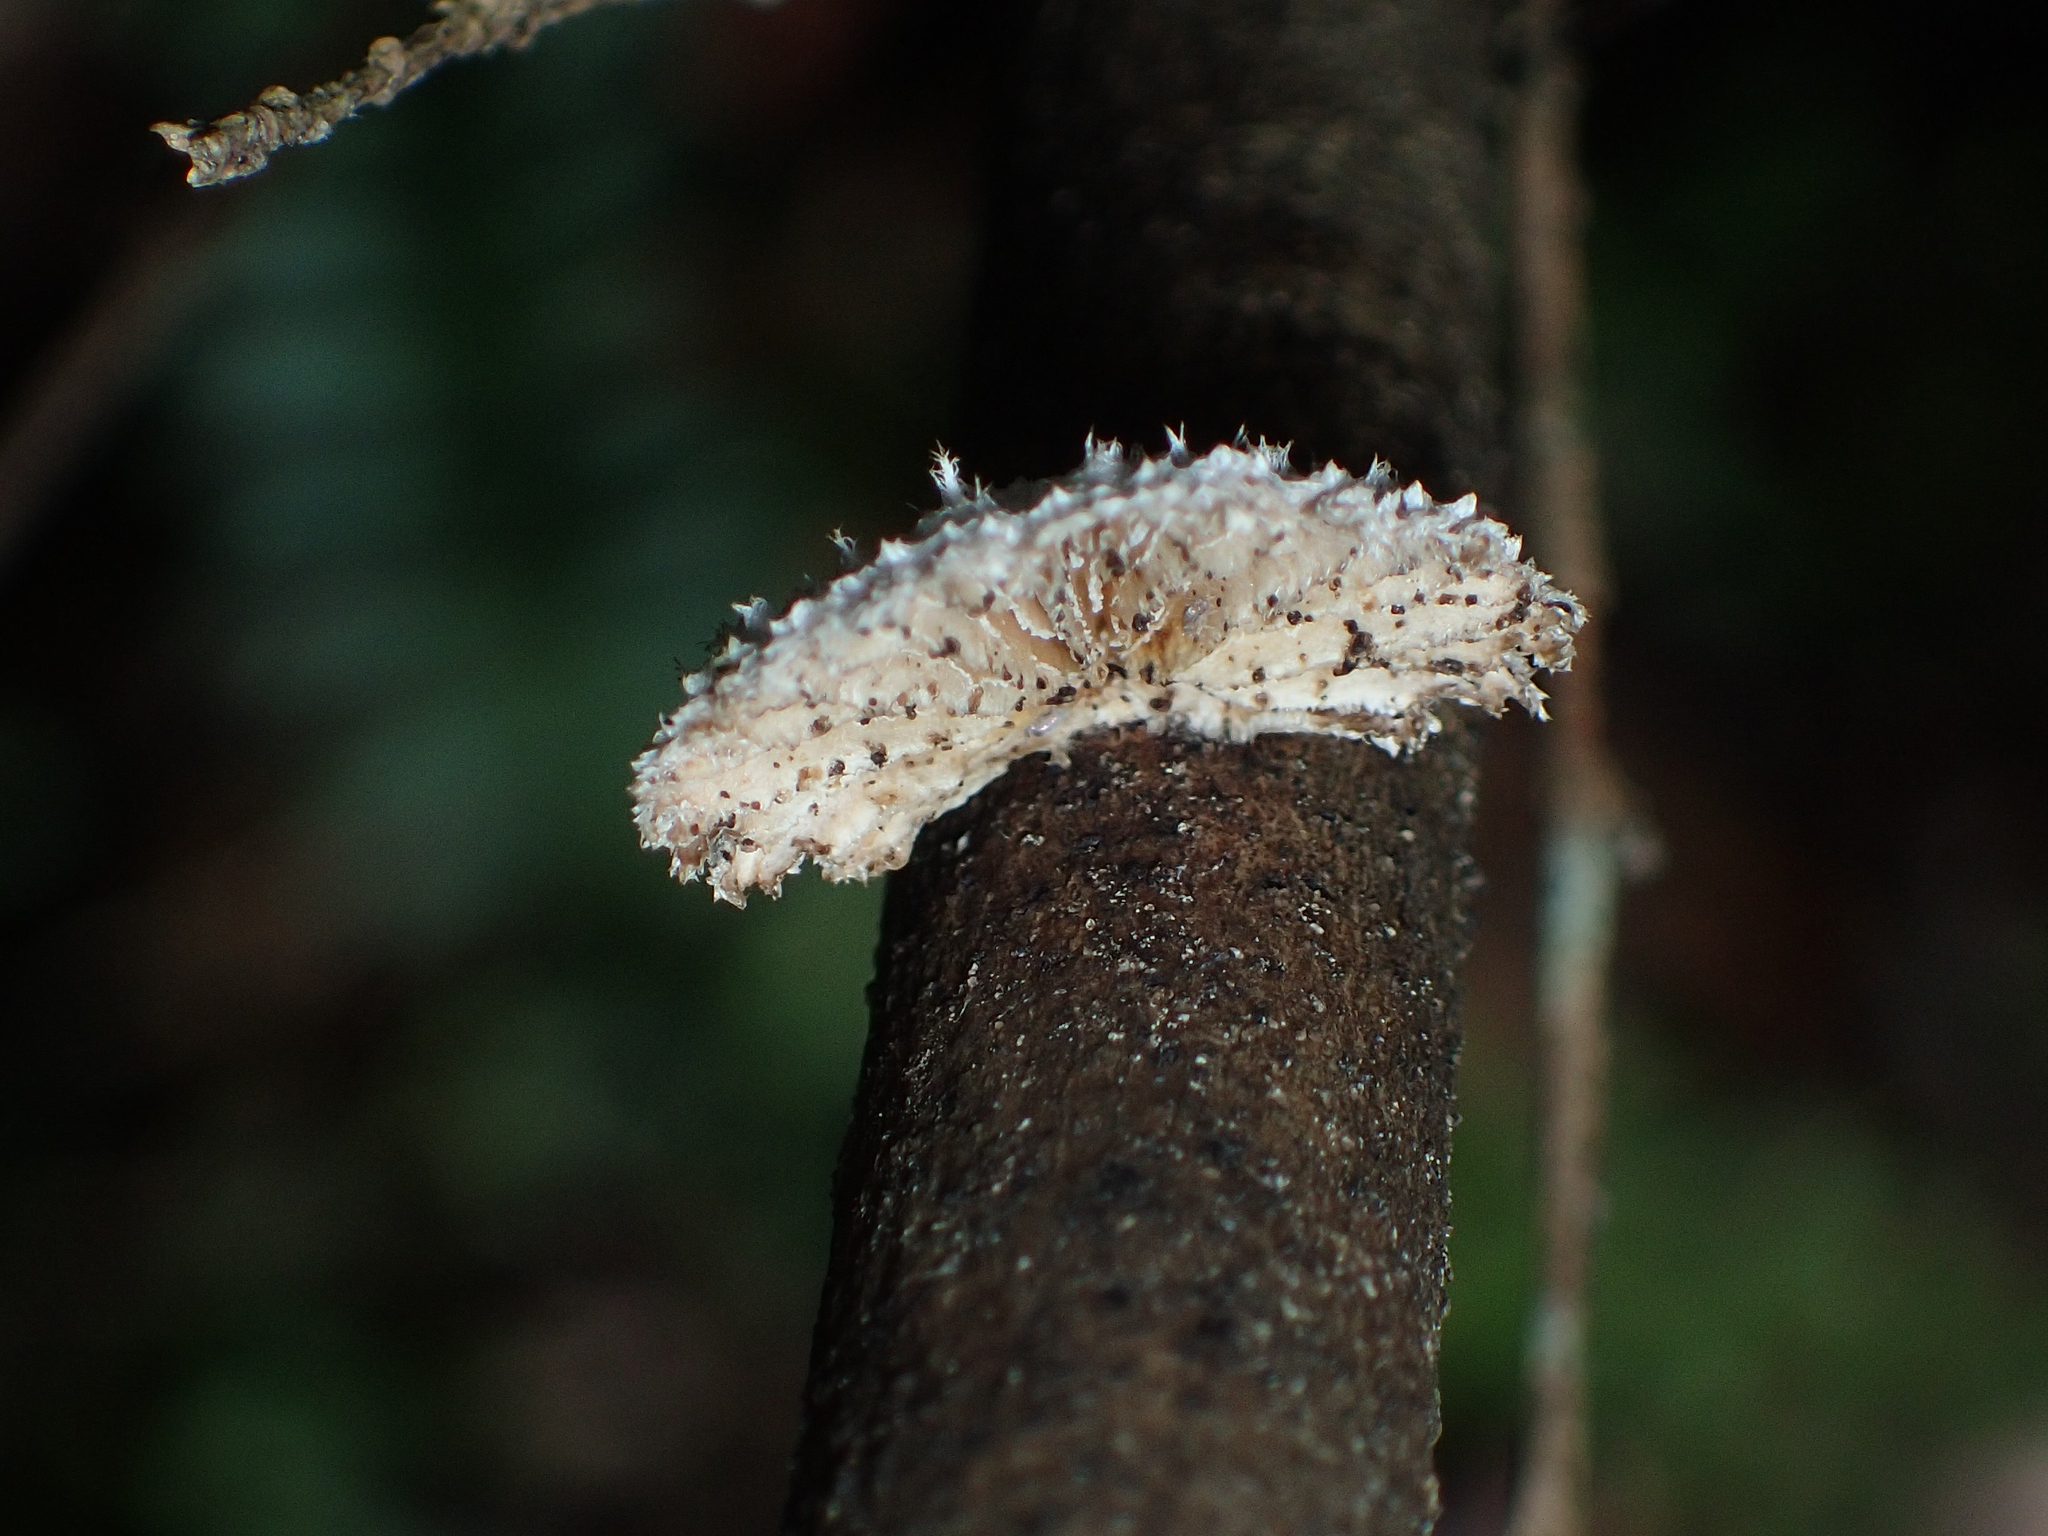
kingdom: Fungi
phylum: Basidiomycota
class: Agaricomycetes
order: Agaricales
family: Schizophyllaceae
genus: Schizophyllum
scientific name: Schizophyllum commune
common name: Common porecrust
